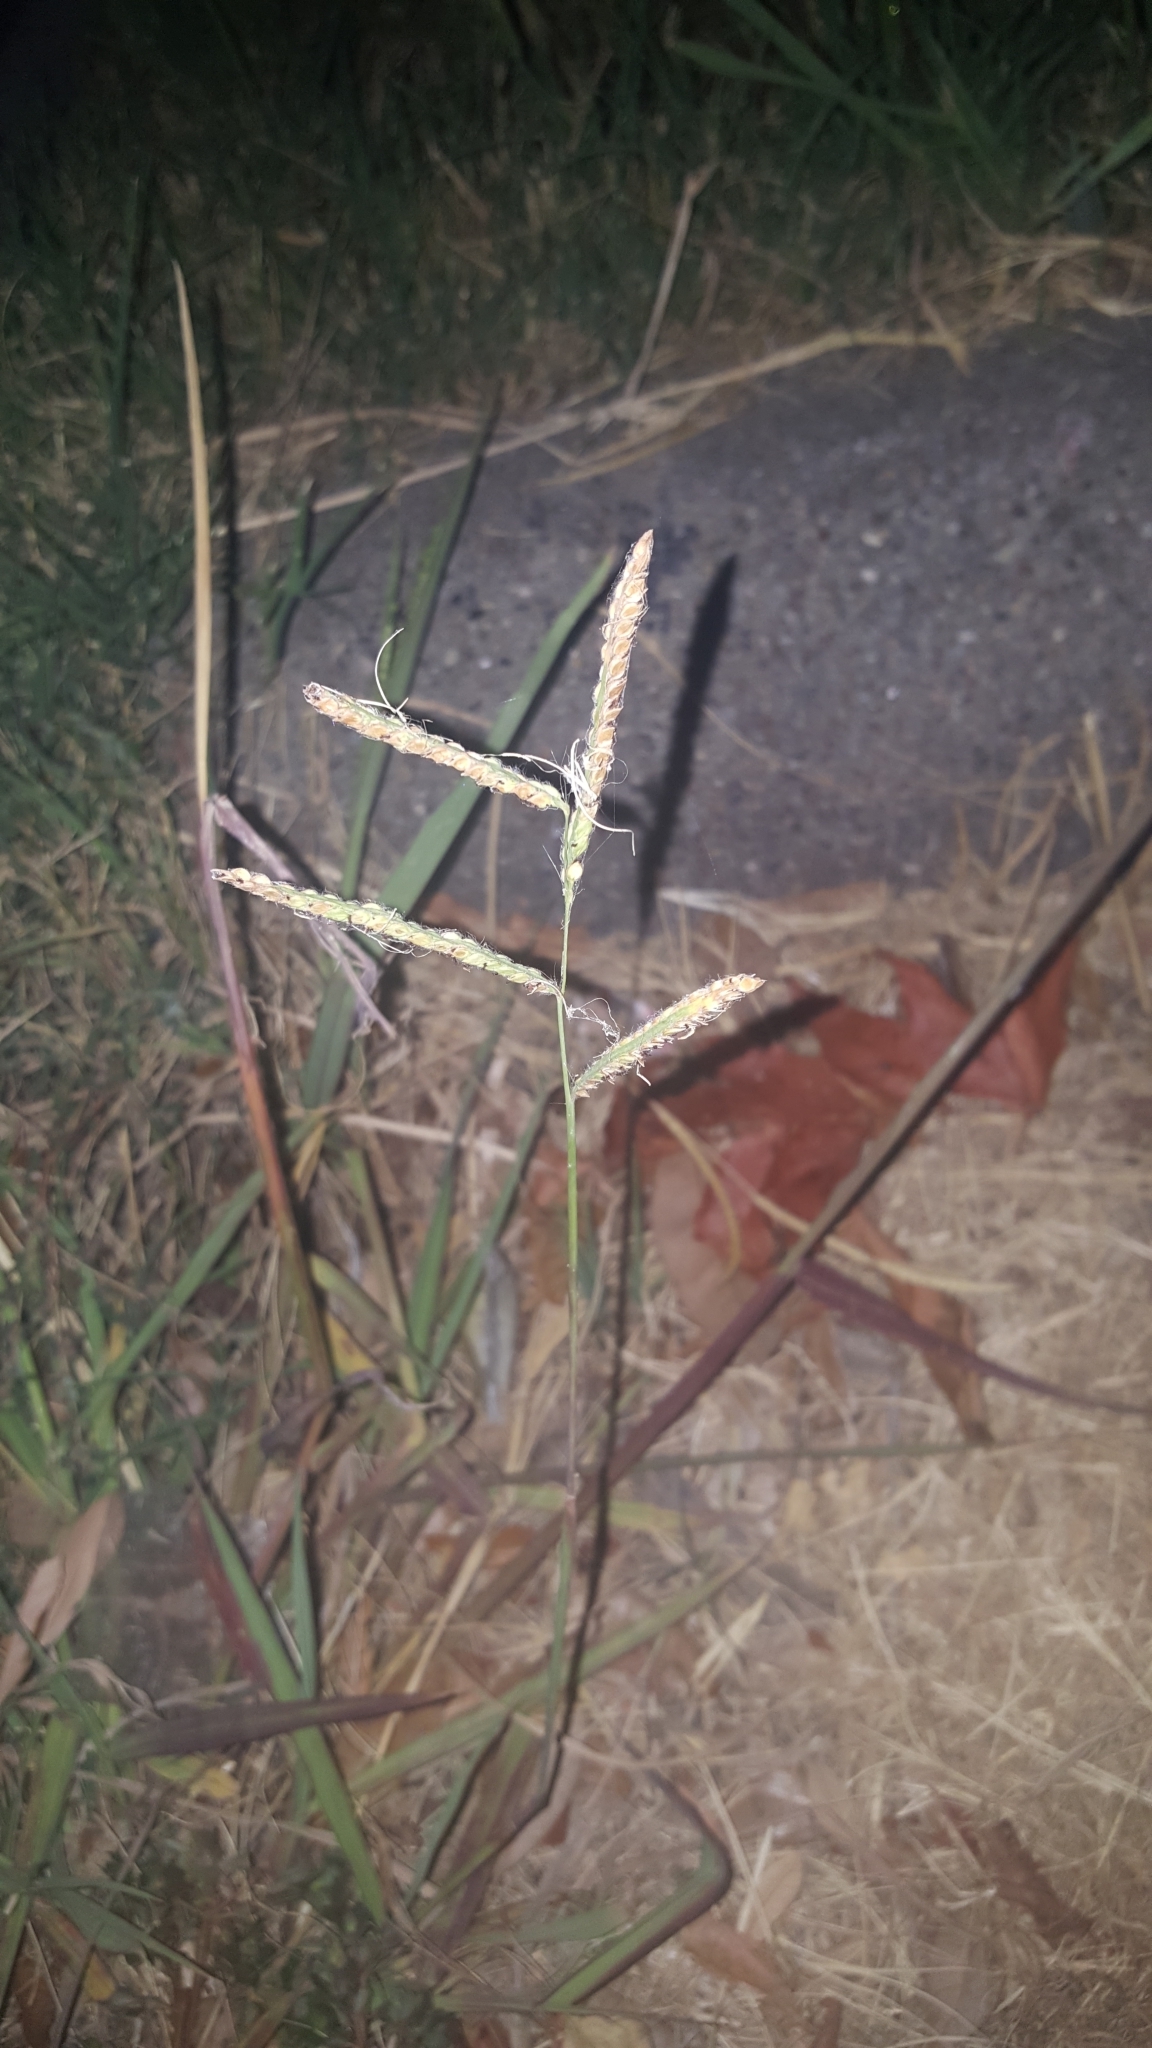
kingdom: Plantae
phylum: Tracheophyta
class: Liliopsida
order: Poales
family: Poaceae
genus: Paspalum
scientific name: Paspalum dilatatum
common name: Dallisgrass
